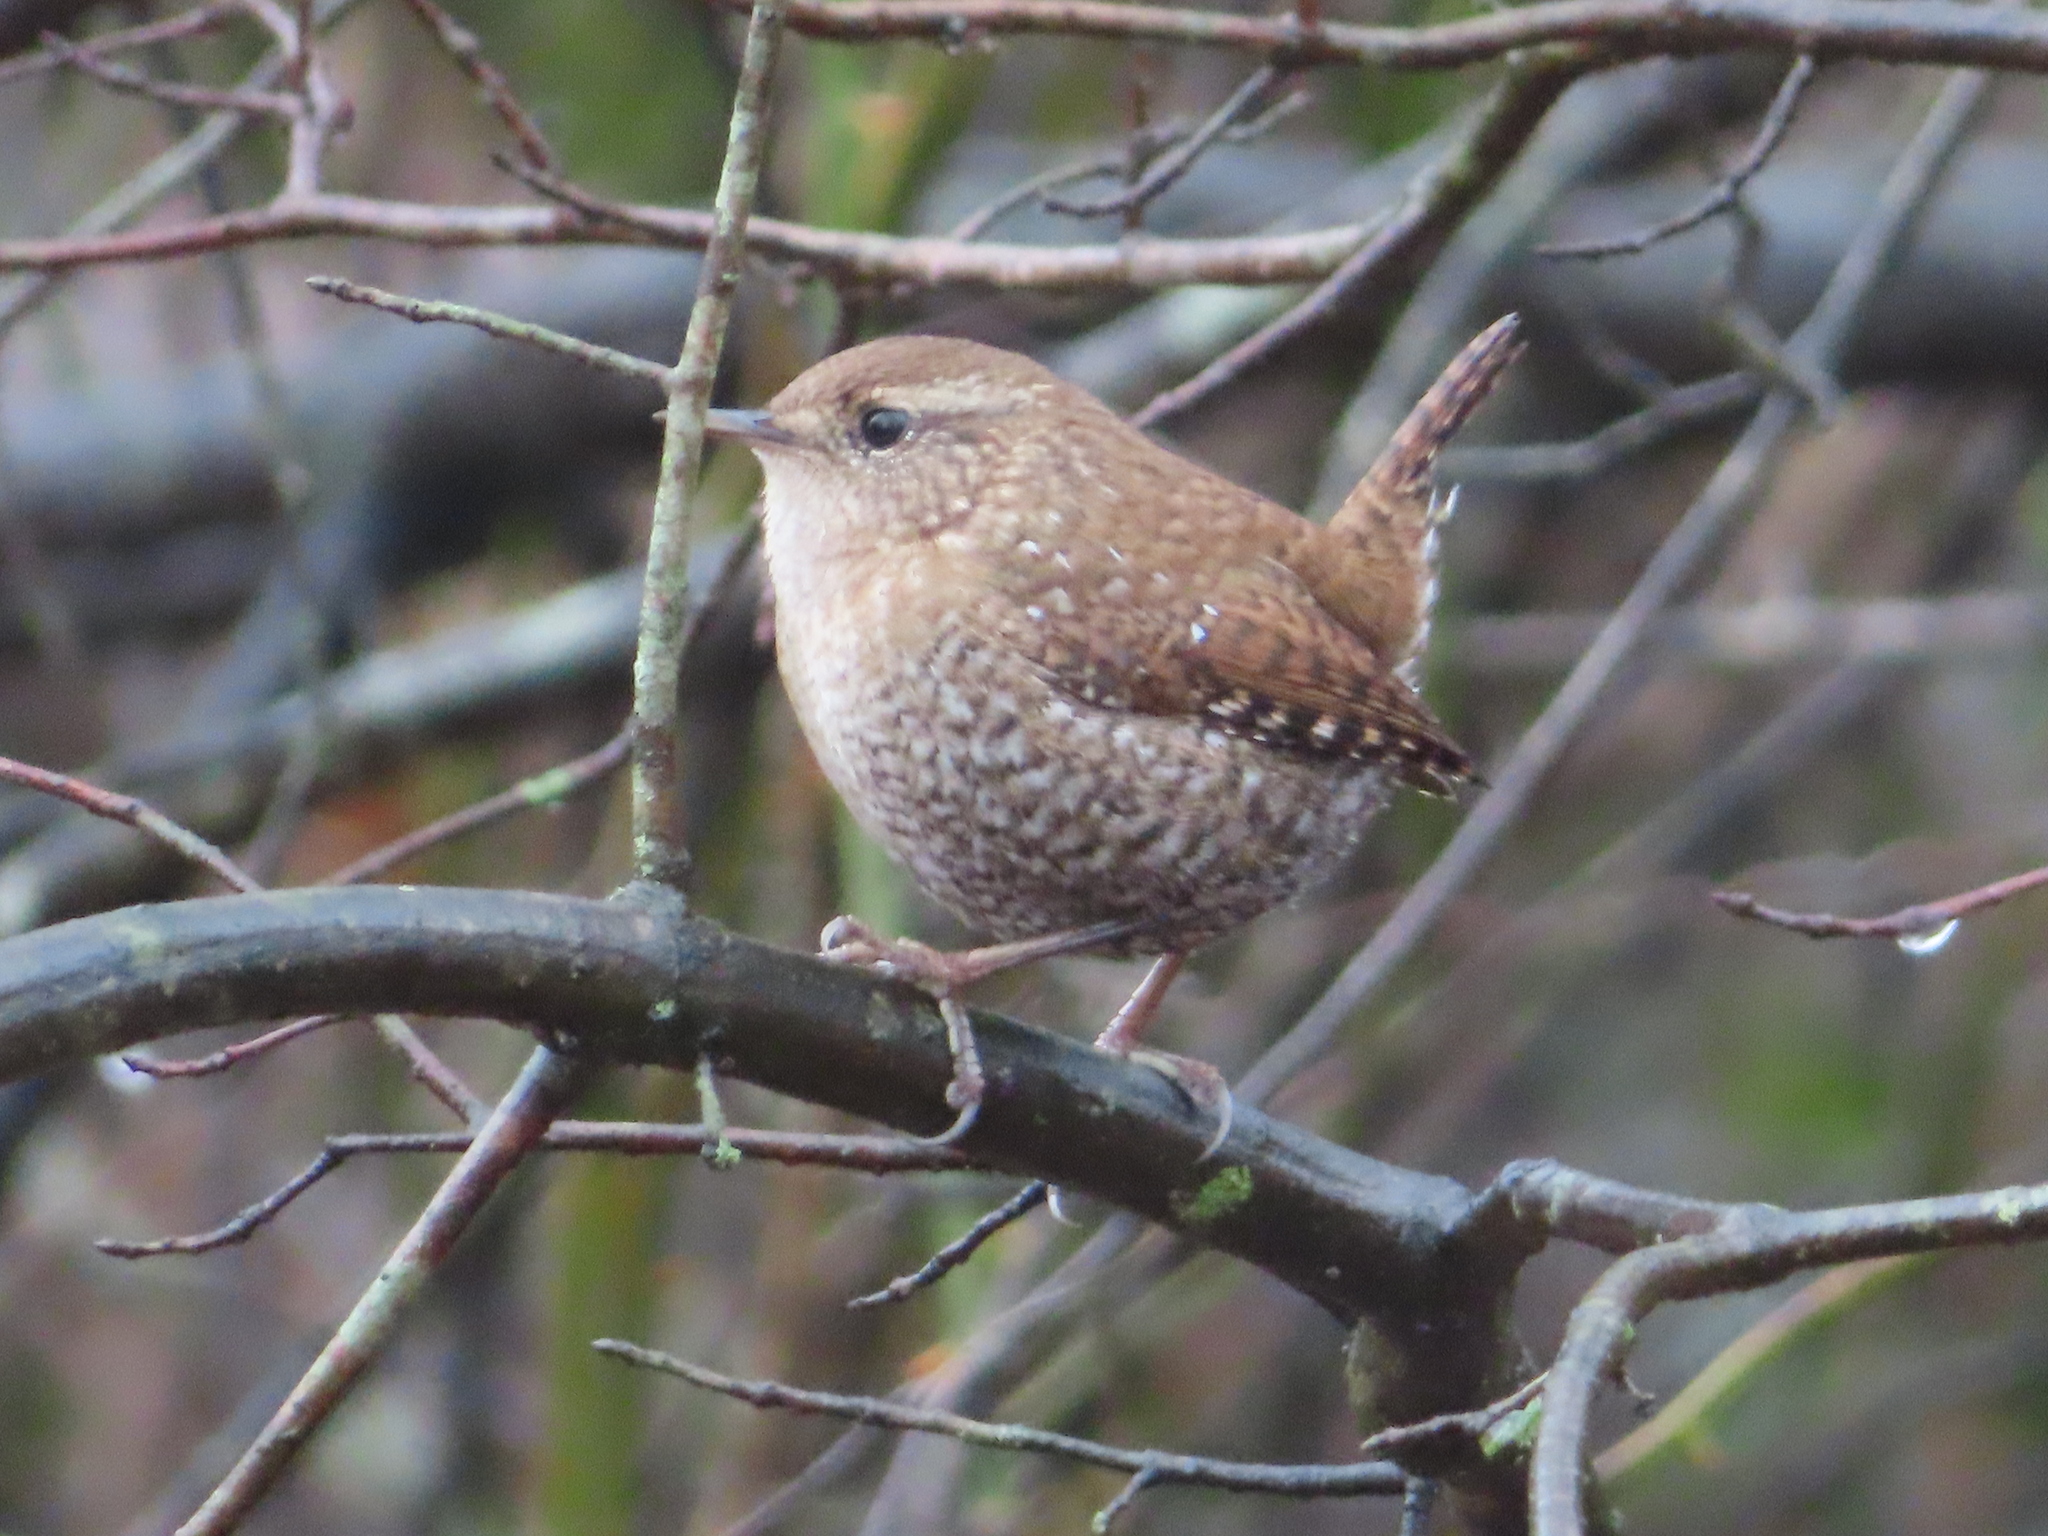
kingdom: Animalia
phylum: Chordata
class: Aves
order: Passeriformes
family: Troglodytidae
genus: Troglodytes
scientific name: Troglodytes hiemalis
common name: Winter wren
